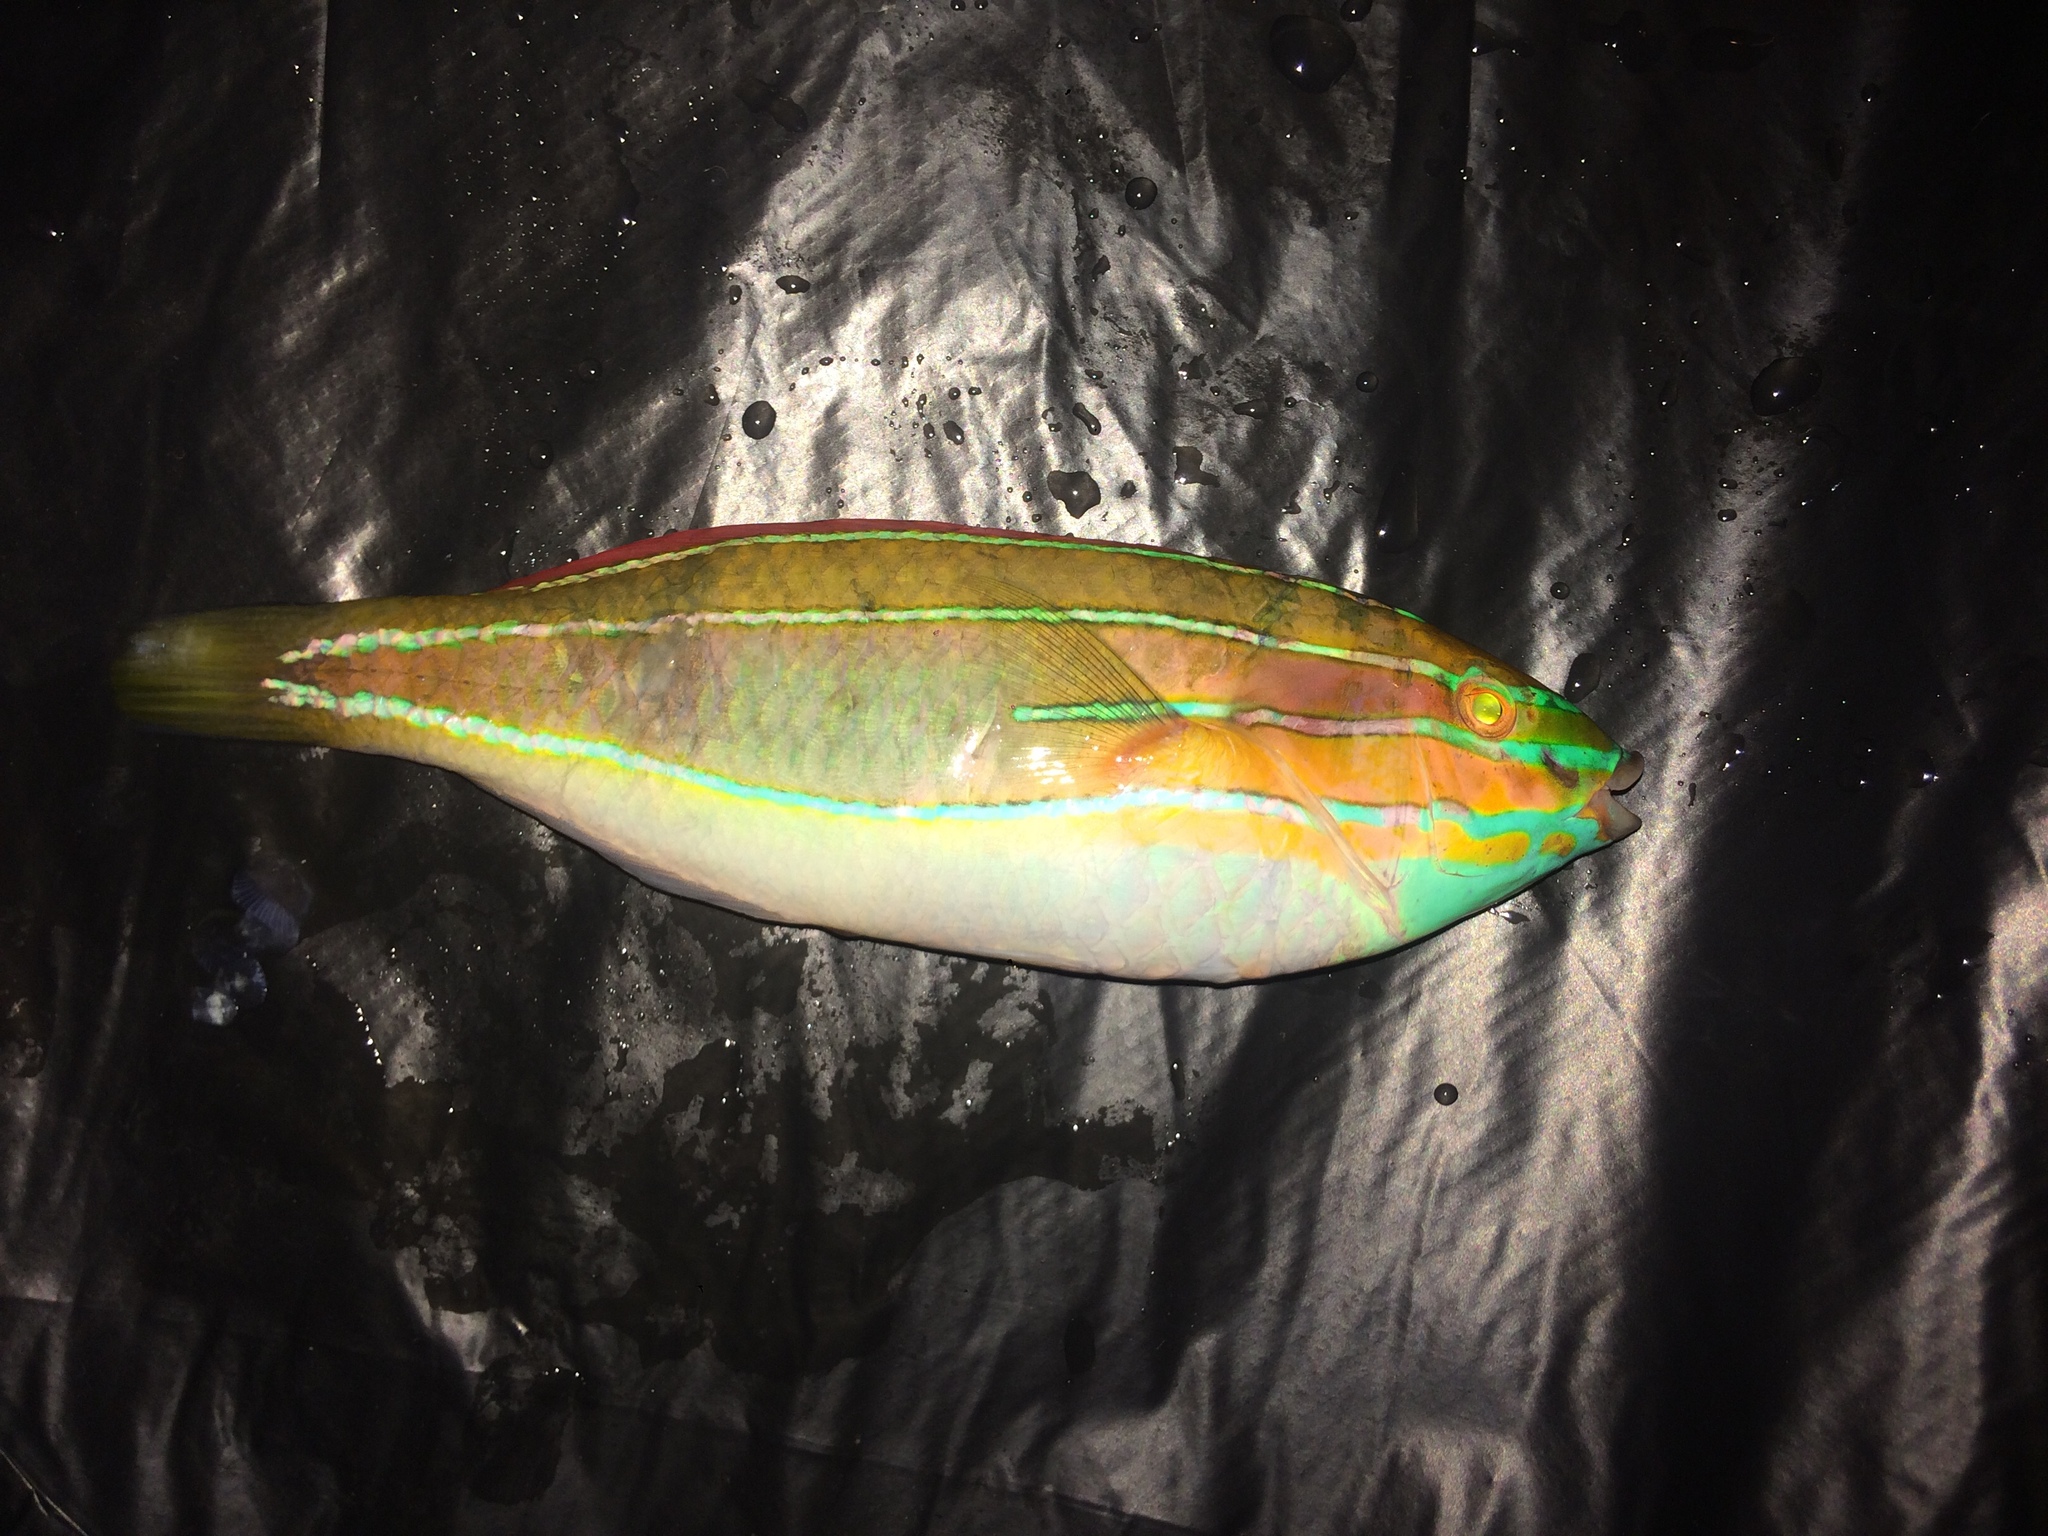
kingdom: Animalia
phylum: Chordata
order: Perciformes
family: Labridae
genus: Stethojulis
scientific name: Stethojulis trilineata
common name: Blue-ribbon wrasse
